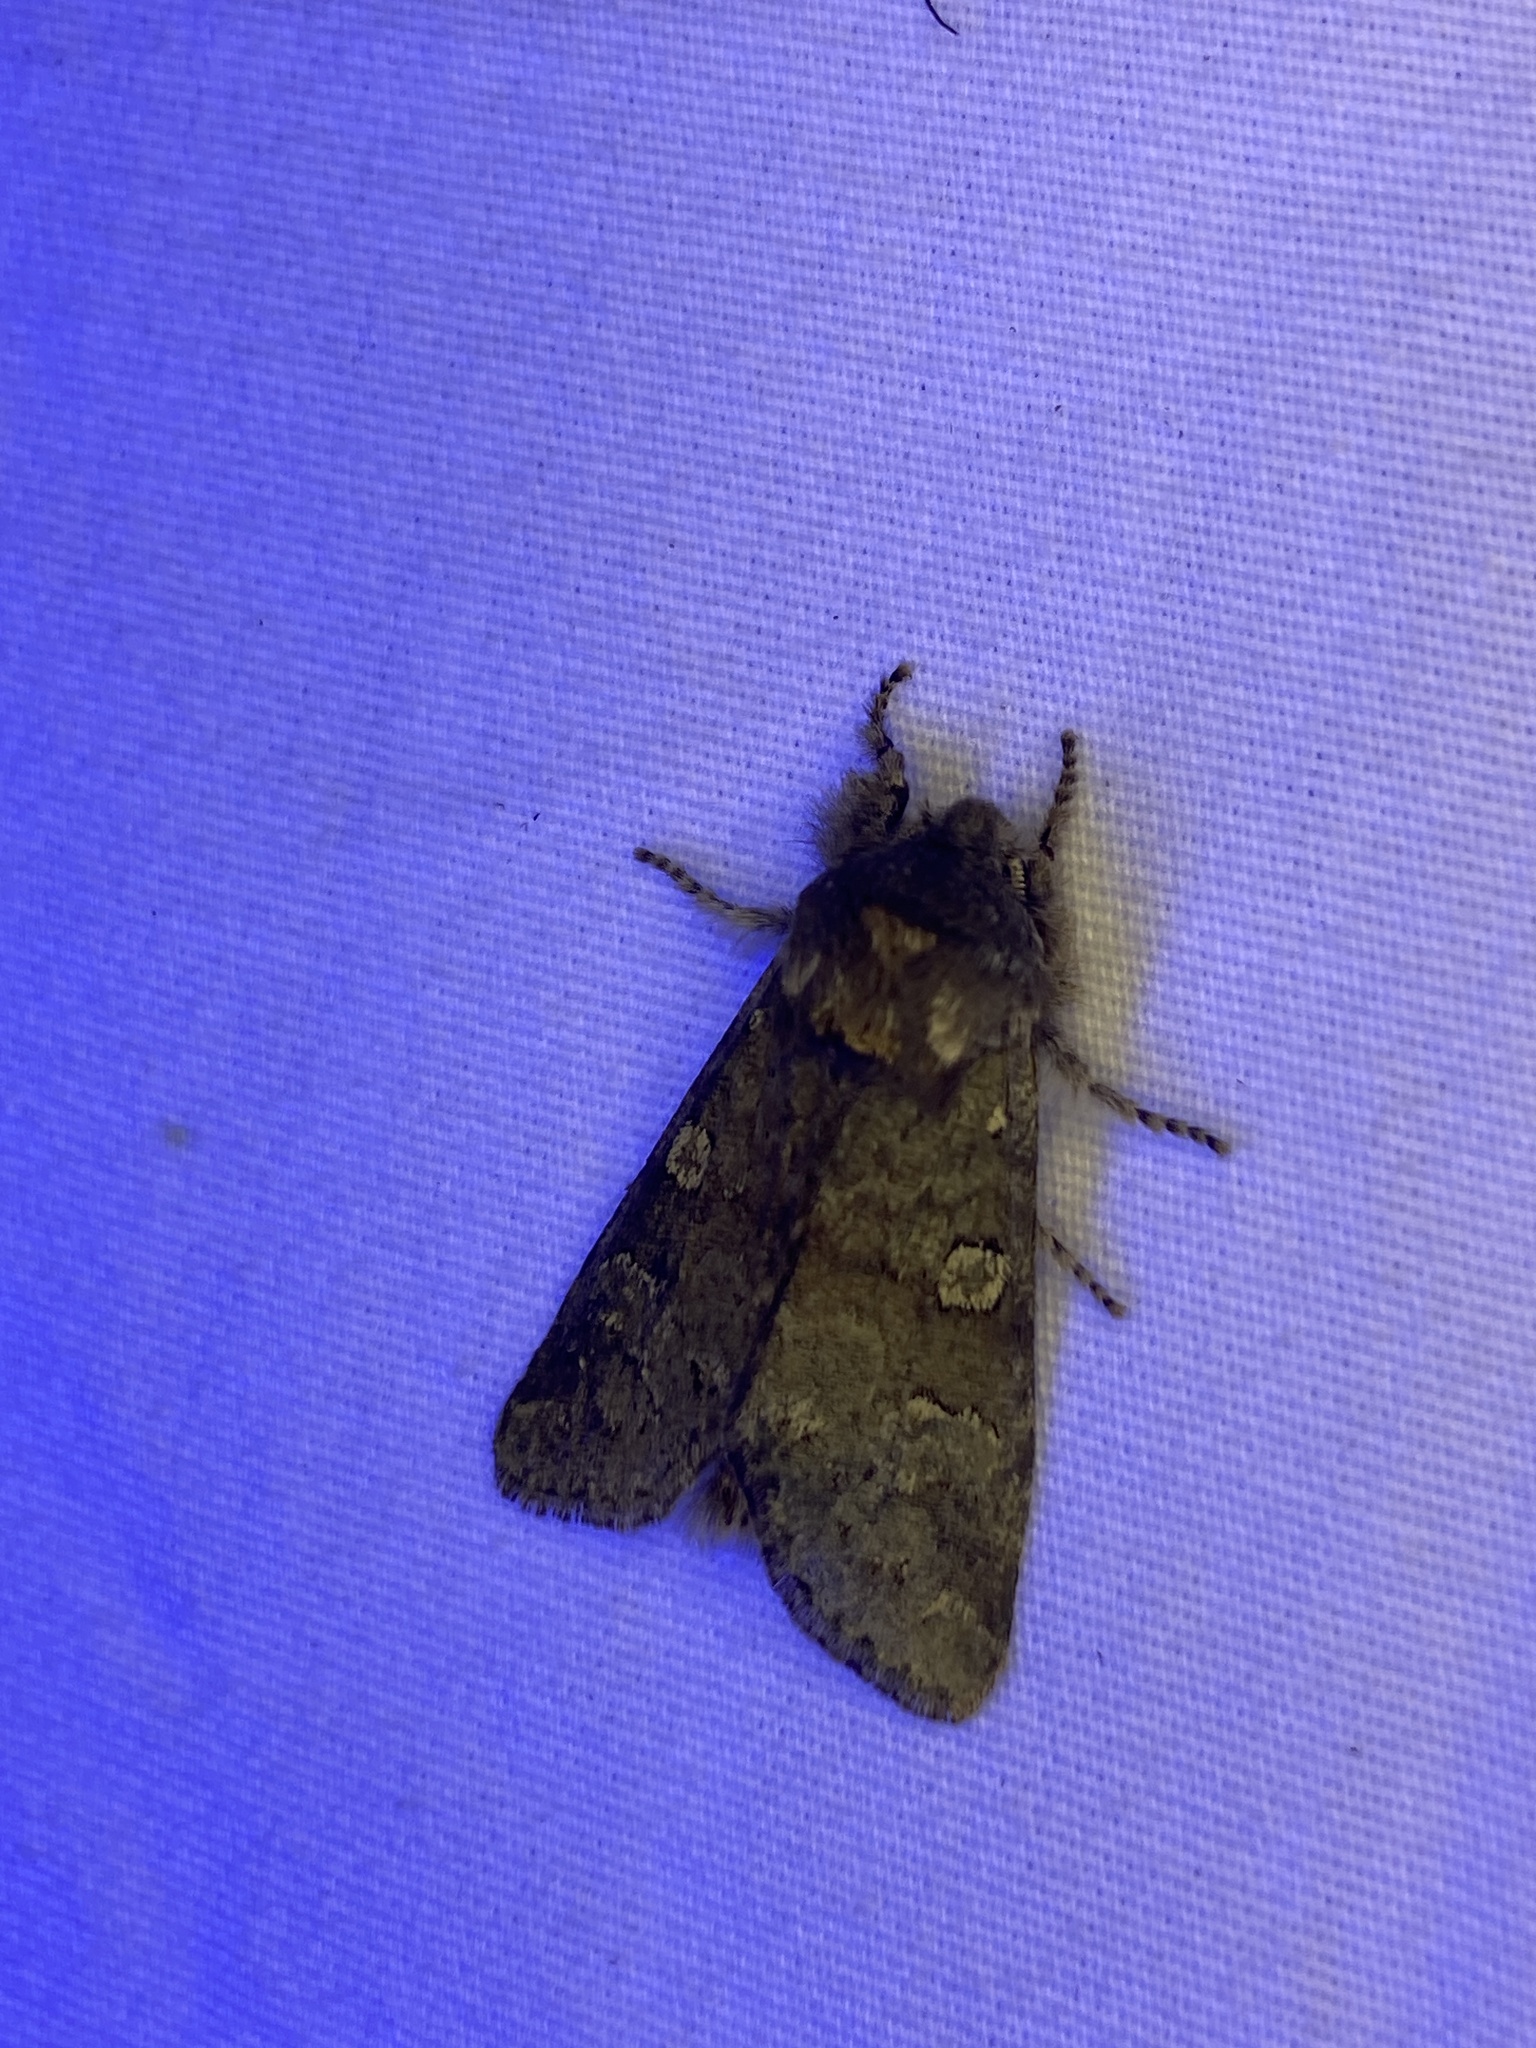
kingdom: Animalia
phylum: Arthropoda
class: Insecta
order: Lepidoptera
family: Noctuidae
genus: Psaphida
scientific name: Psaphida rolandi
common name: Roland's sallow
